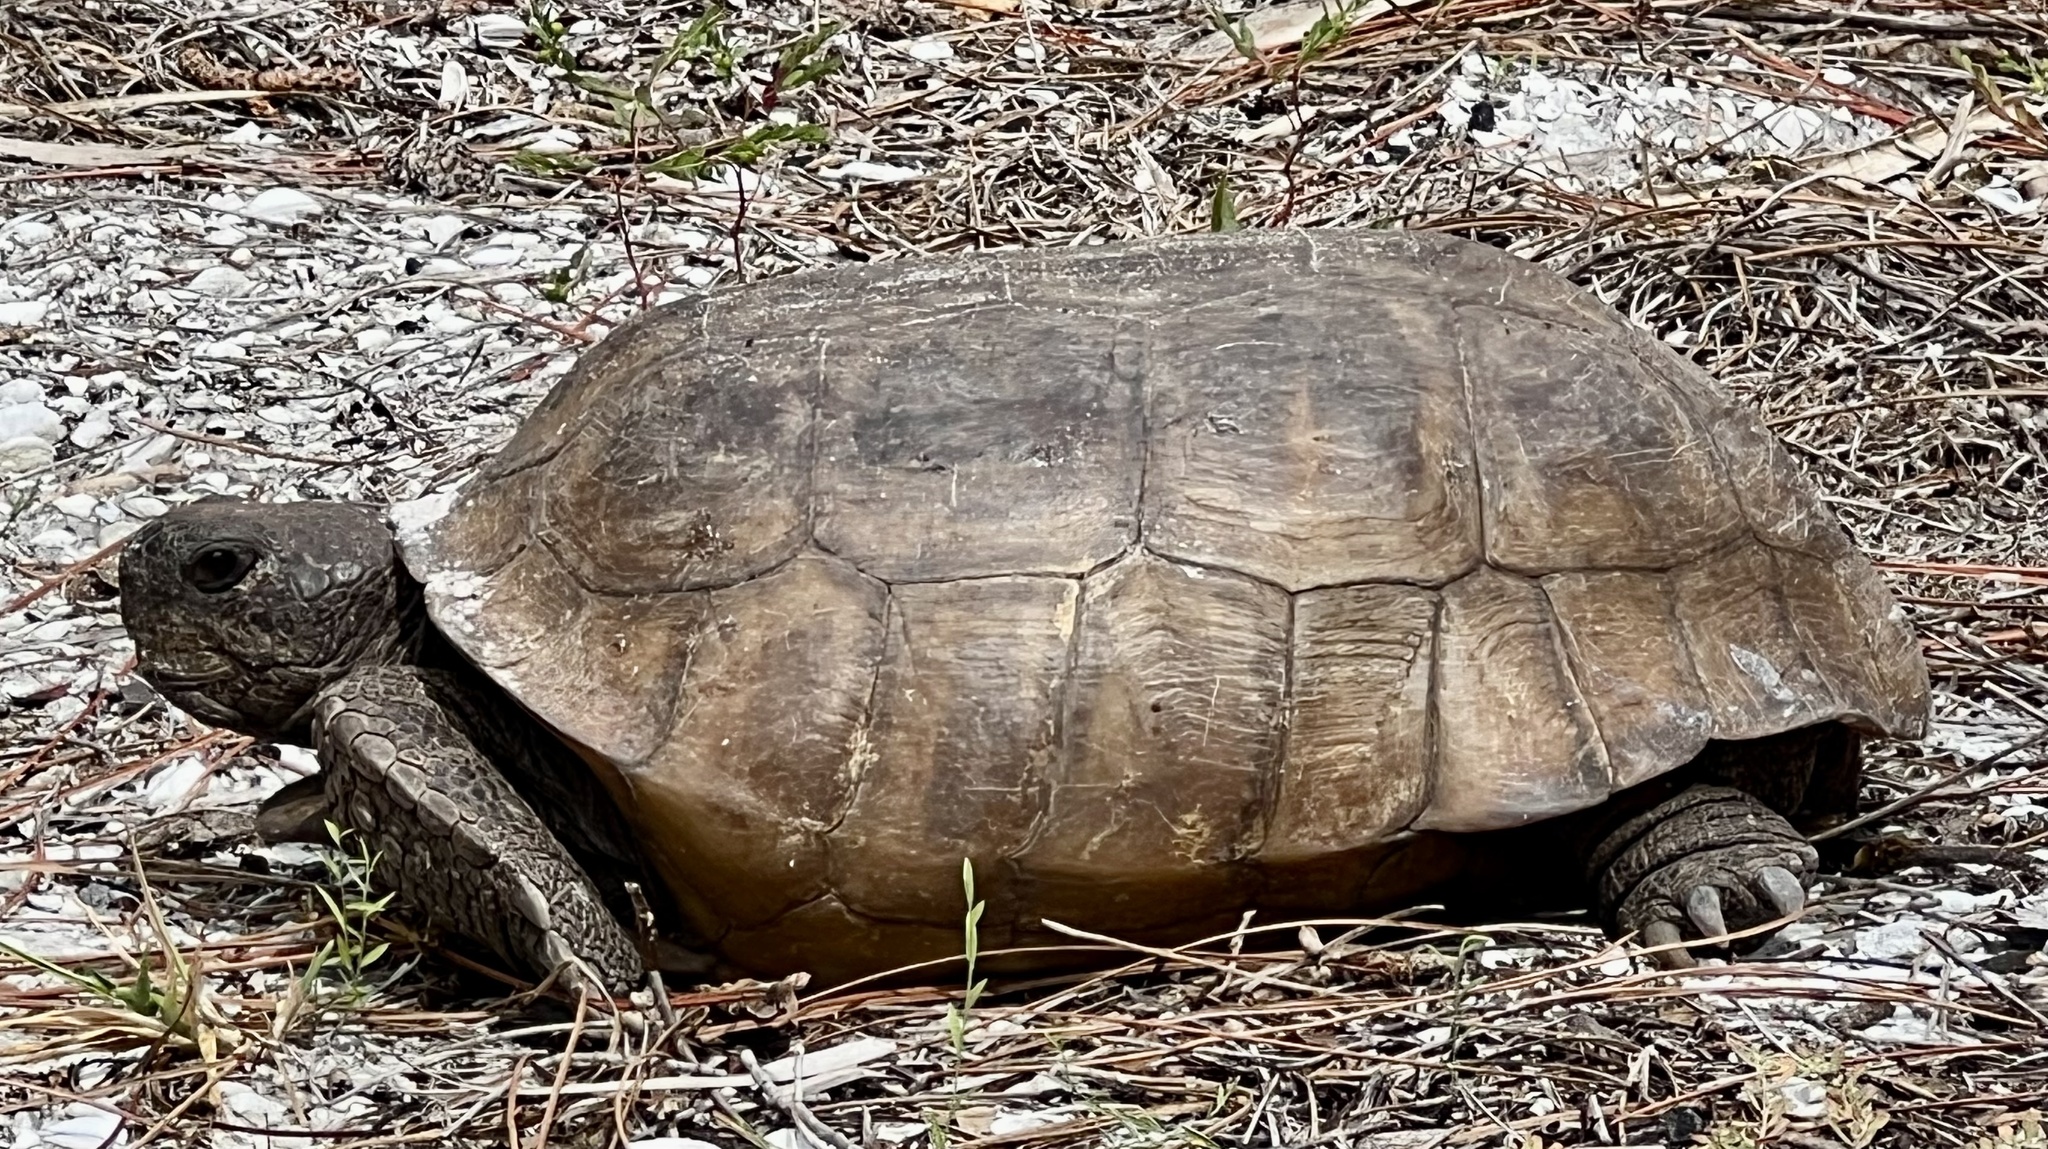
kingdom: Animalia
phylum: Chordata
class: Testudines
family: Testudinidae
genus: Gopherus
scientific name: Gopherus polyphemus
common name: Florida gopher tortoise
